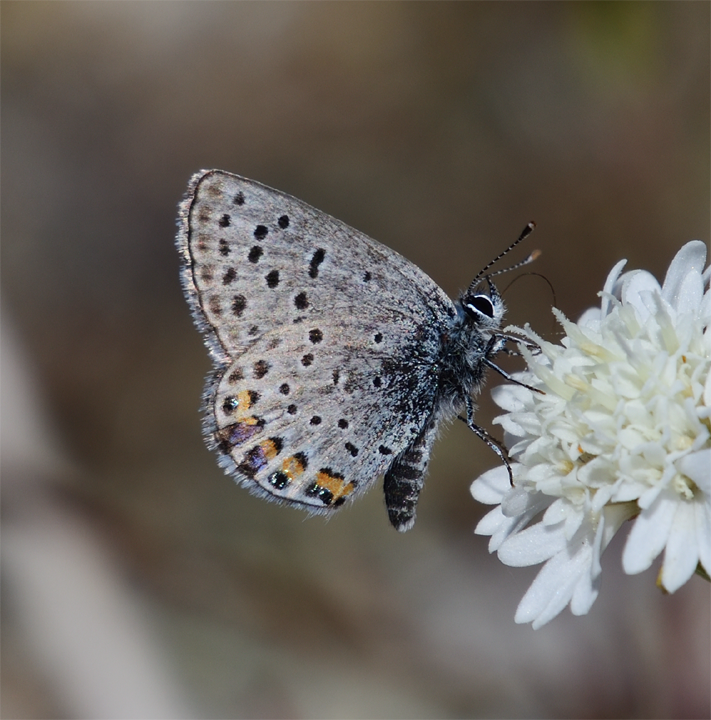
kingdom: Animalia
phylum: Arthropoda
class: Insecta
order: Lepidoptera
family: Lycaenidae
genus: Icaricia
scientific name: Icaricia acmon
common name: Acmon blue
